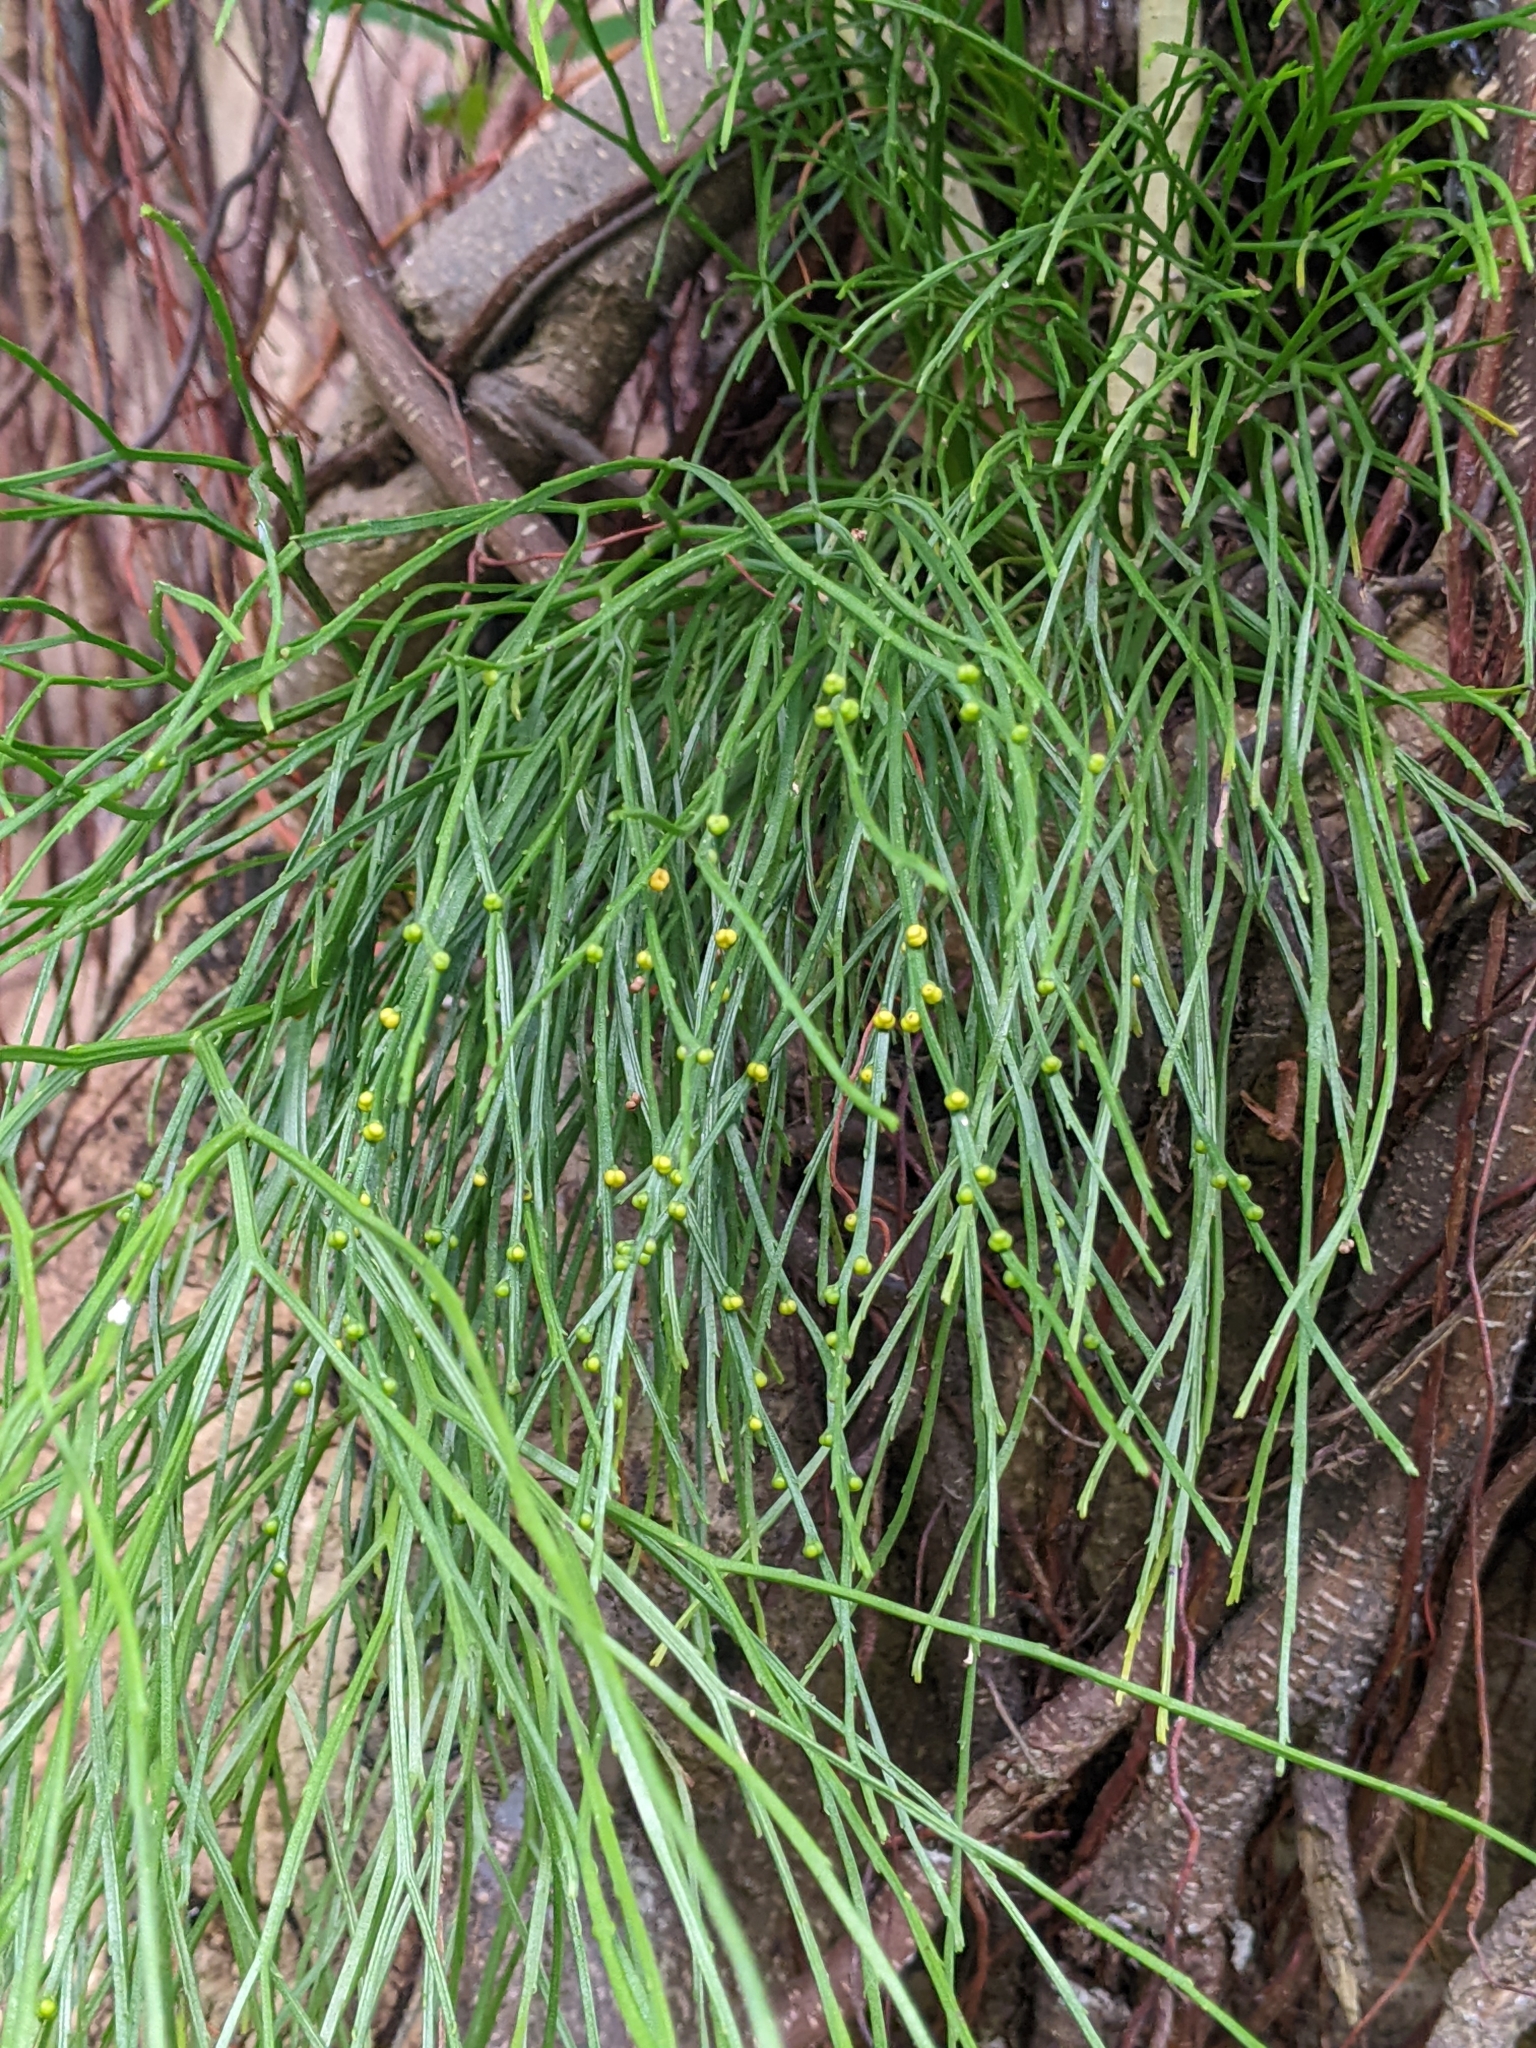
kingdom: Plantae
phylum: Tracheophyta
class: Polypodiopsida
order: Psilotales
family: Psilotaceae
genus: Psilotum
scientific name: Psilotum nudum
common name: Skeleton fork fern
